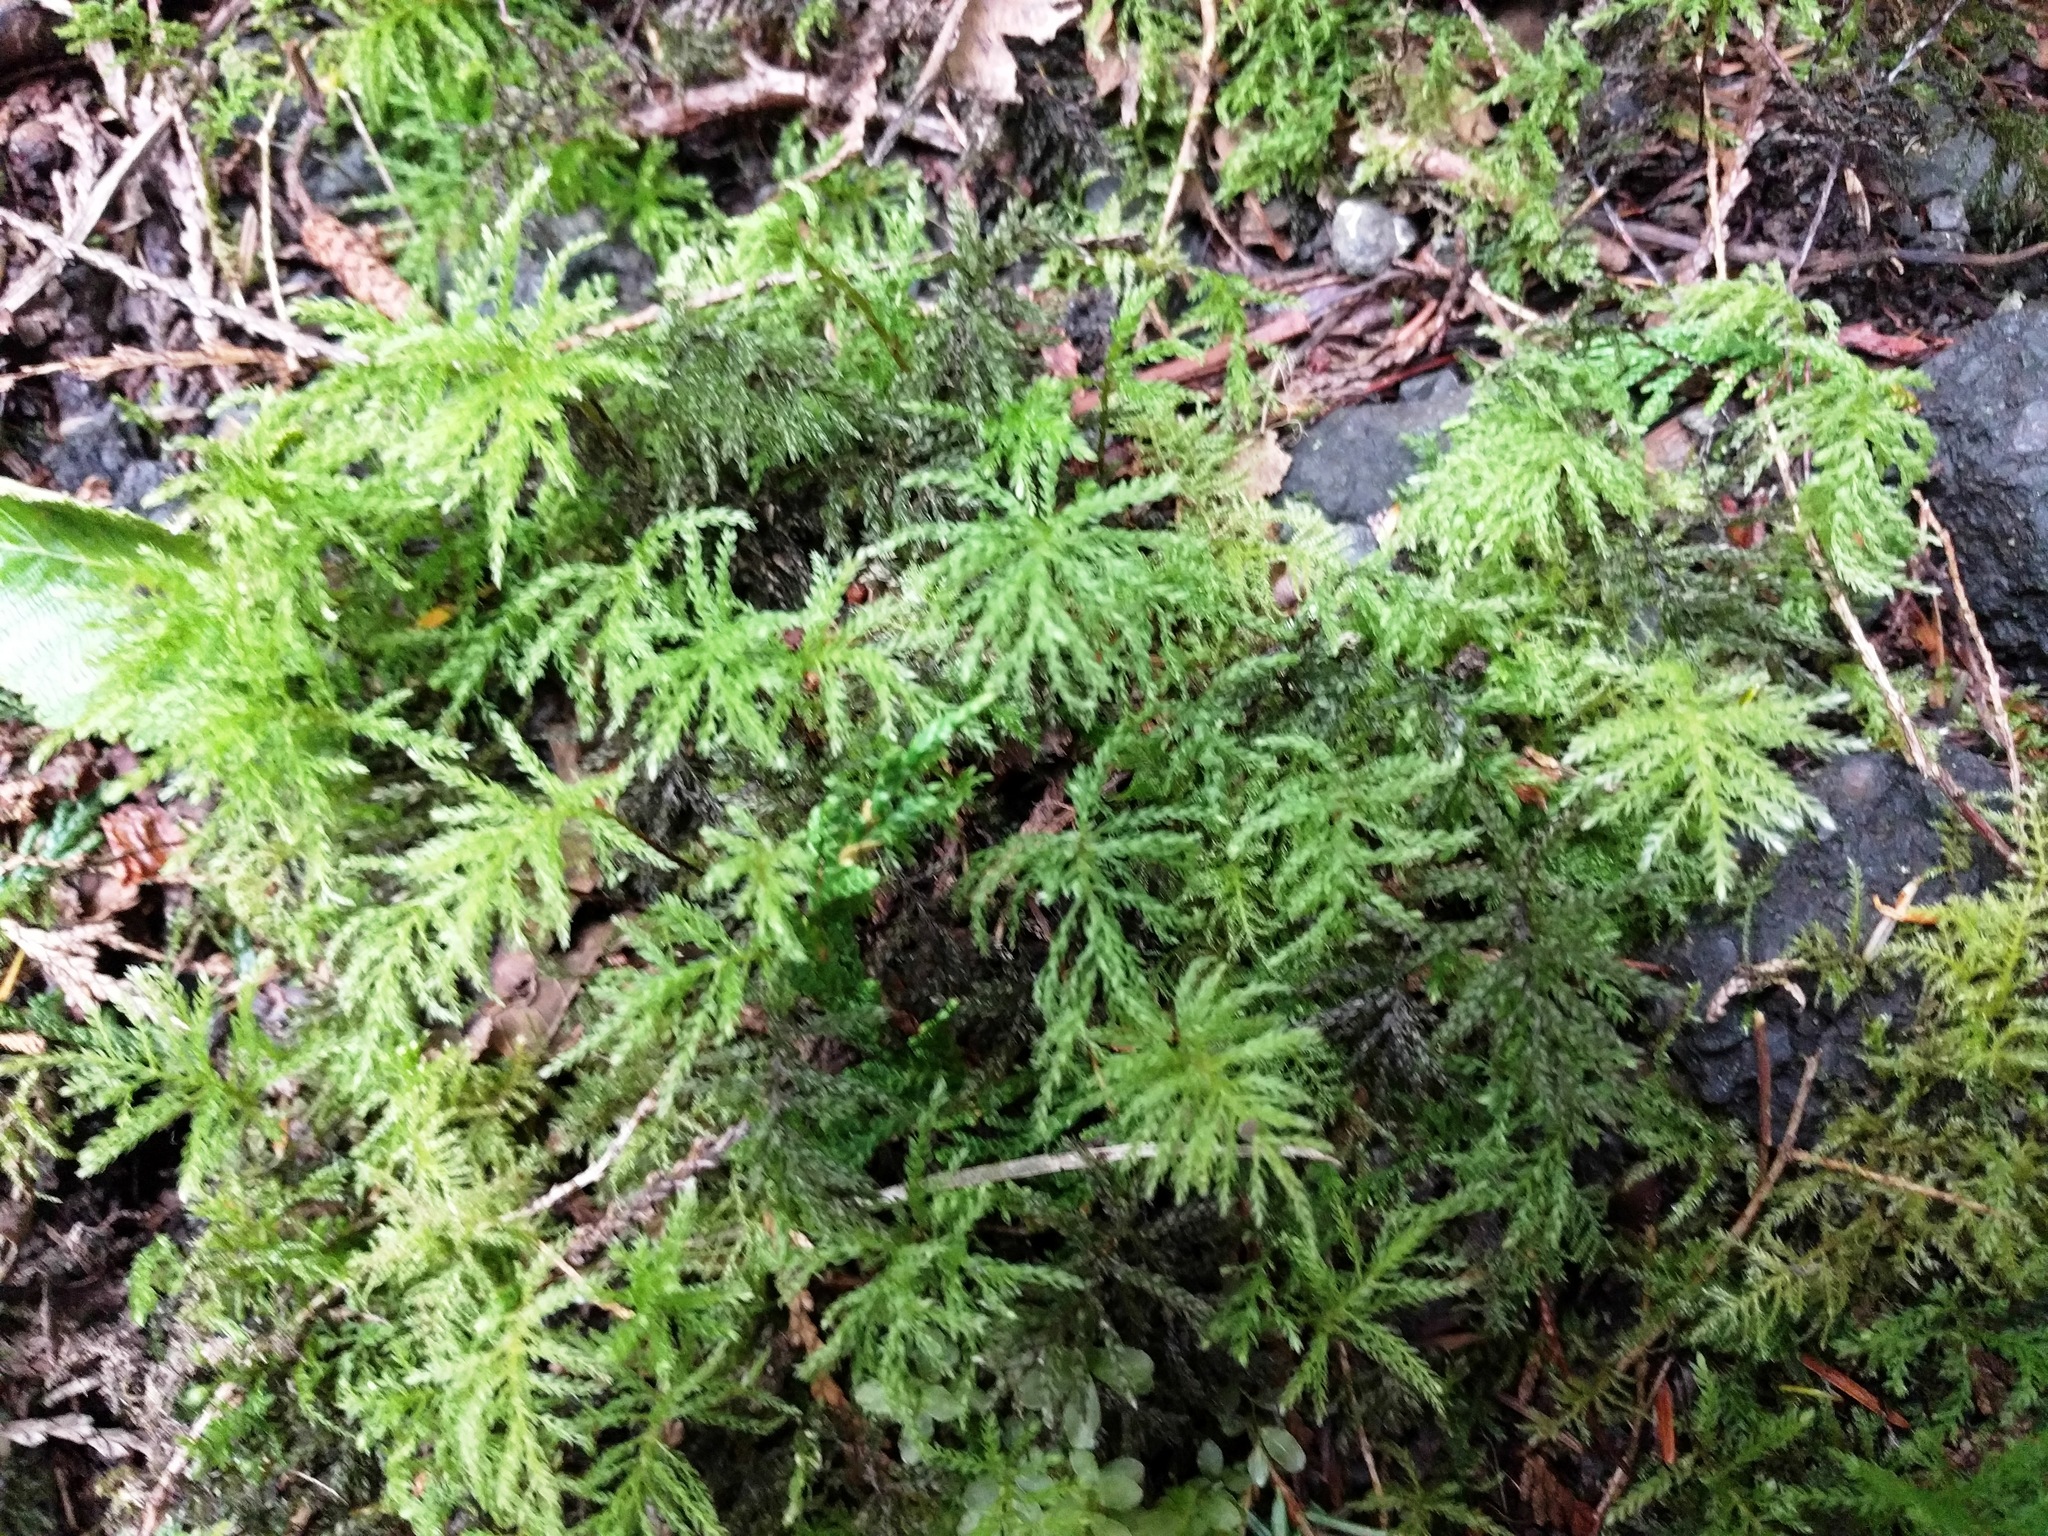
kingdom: Plantae
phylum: Bryophyta
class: Bryopsida
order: Bryales
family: Mniaceae
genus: Leucolepis
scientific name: Leucolepis acanthoneura
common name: Leucolepis umbrella moss
